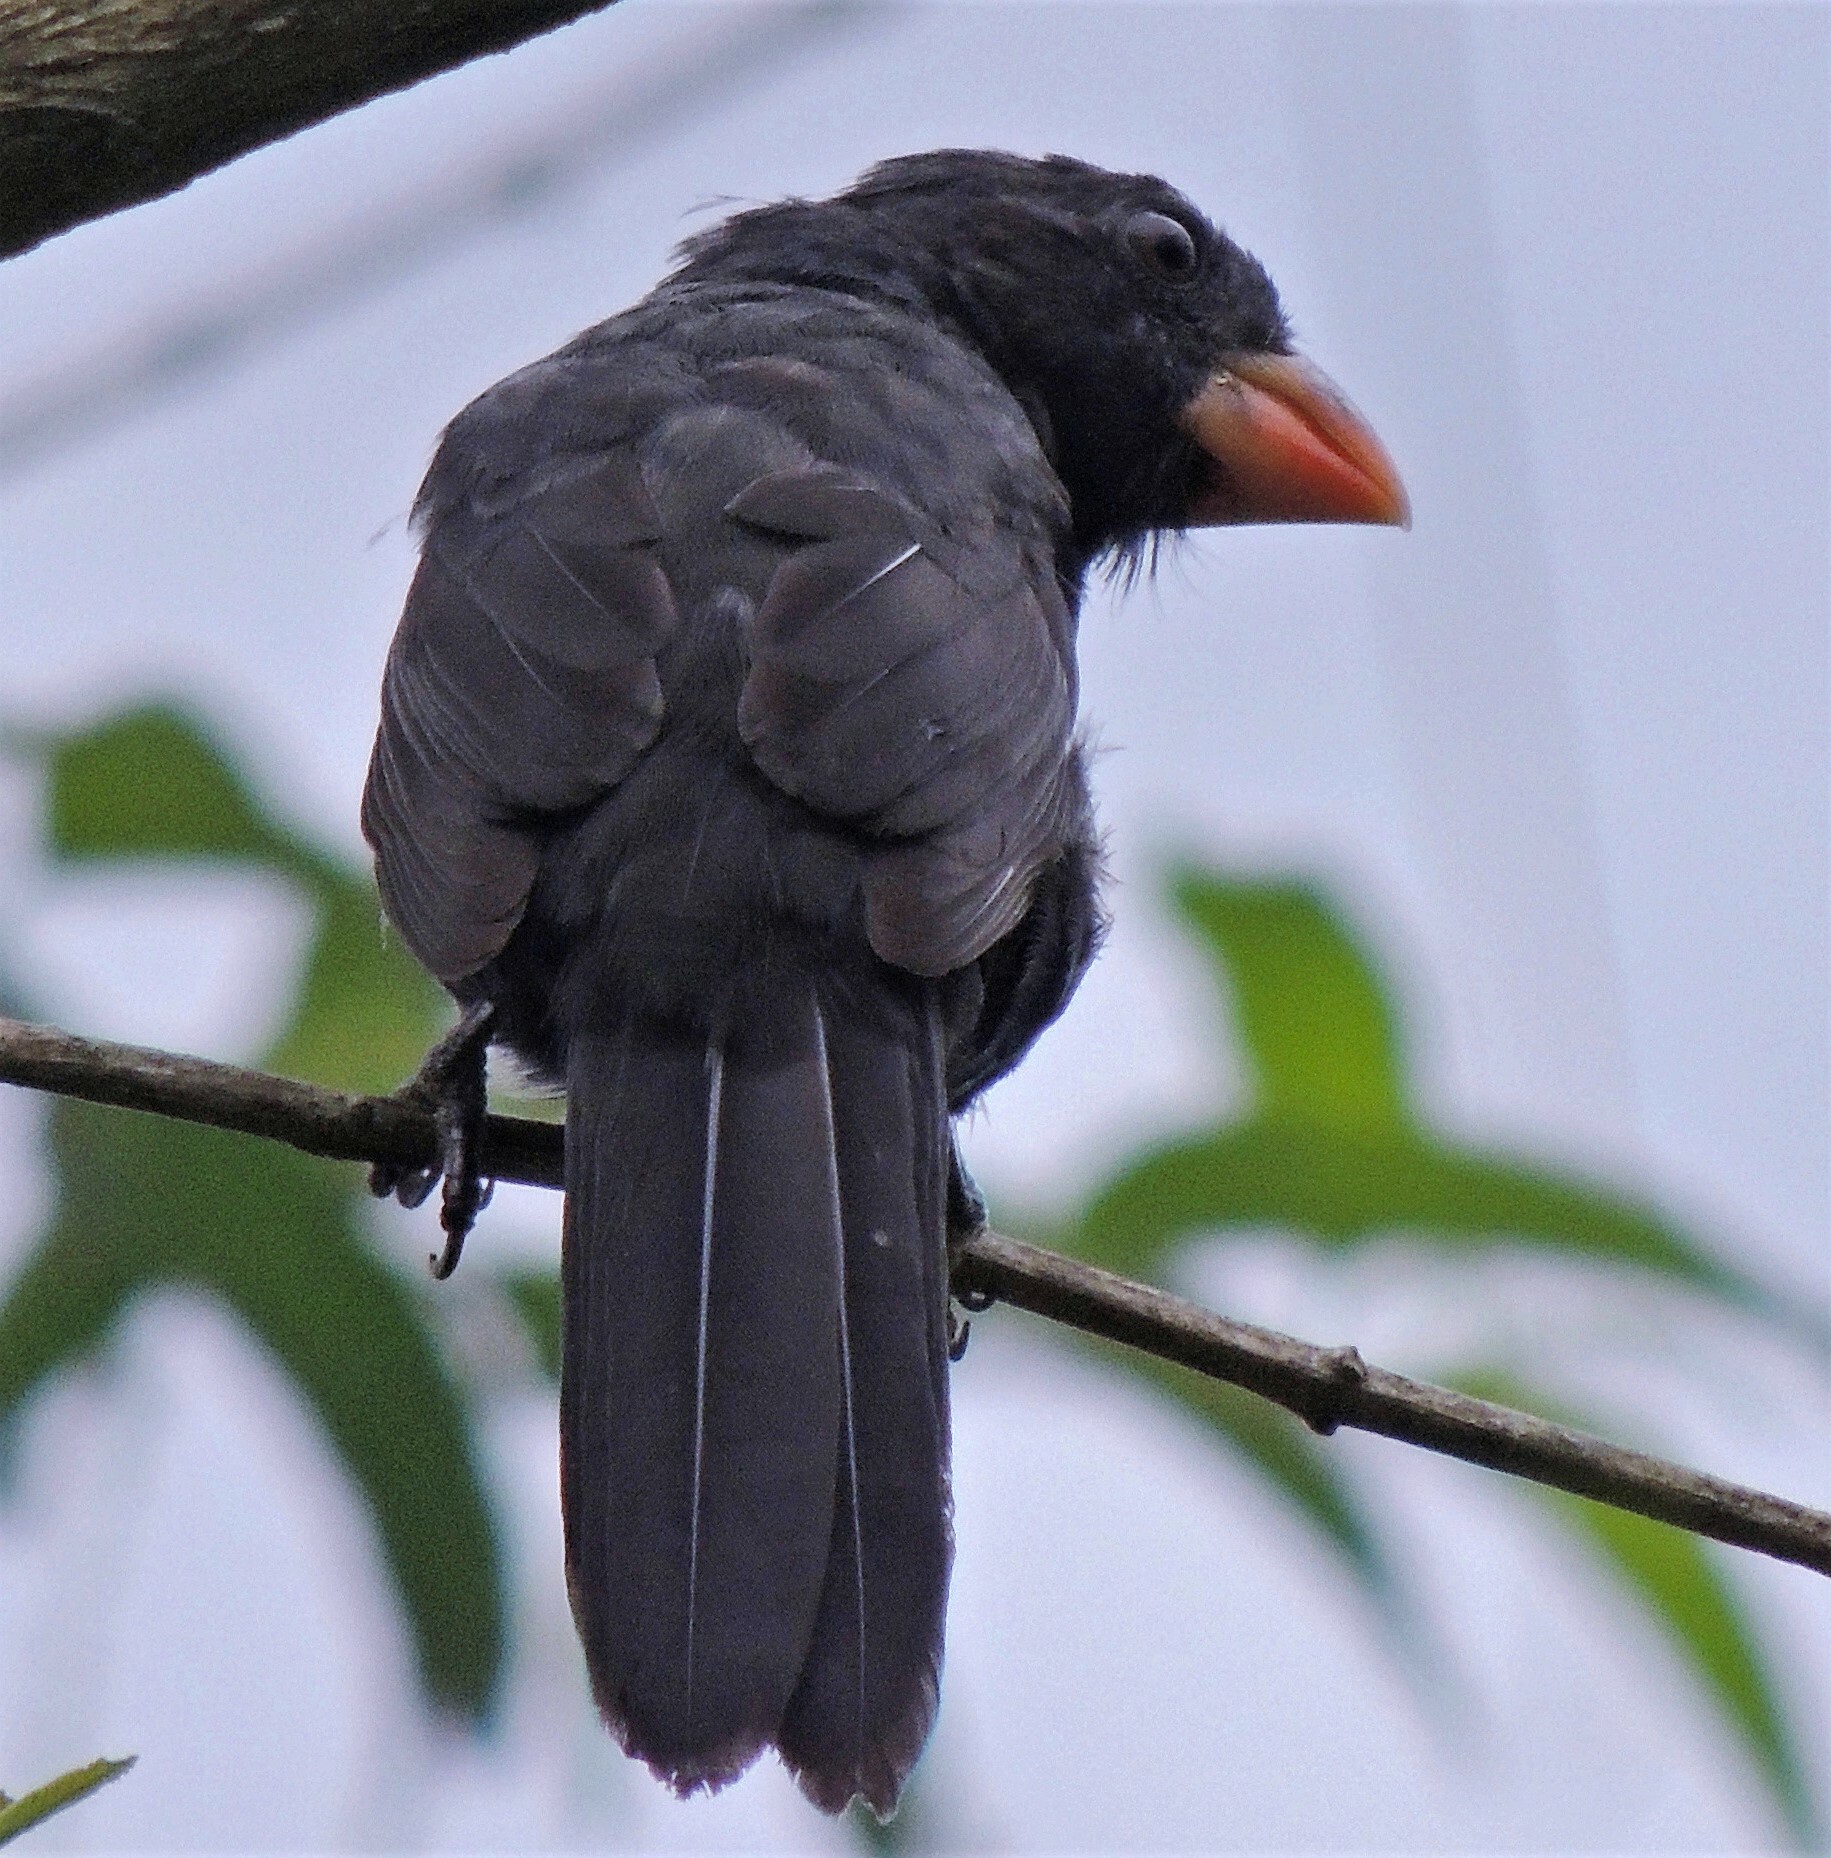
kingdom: Animalia
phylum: Chordata
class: Aves
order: Passeriformes
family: Thraupidae
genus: Saltator
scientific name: Saltator fuliginosus
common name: Black-throated grosbeak
